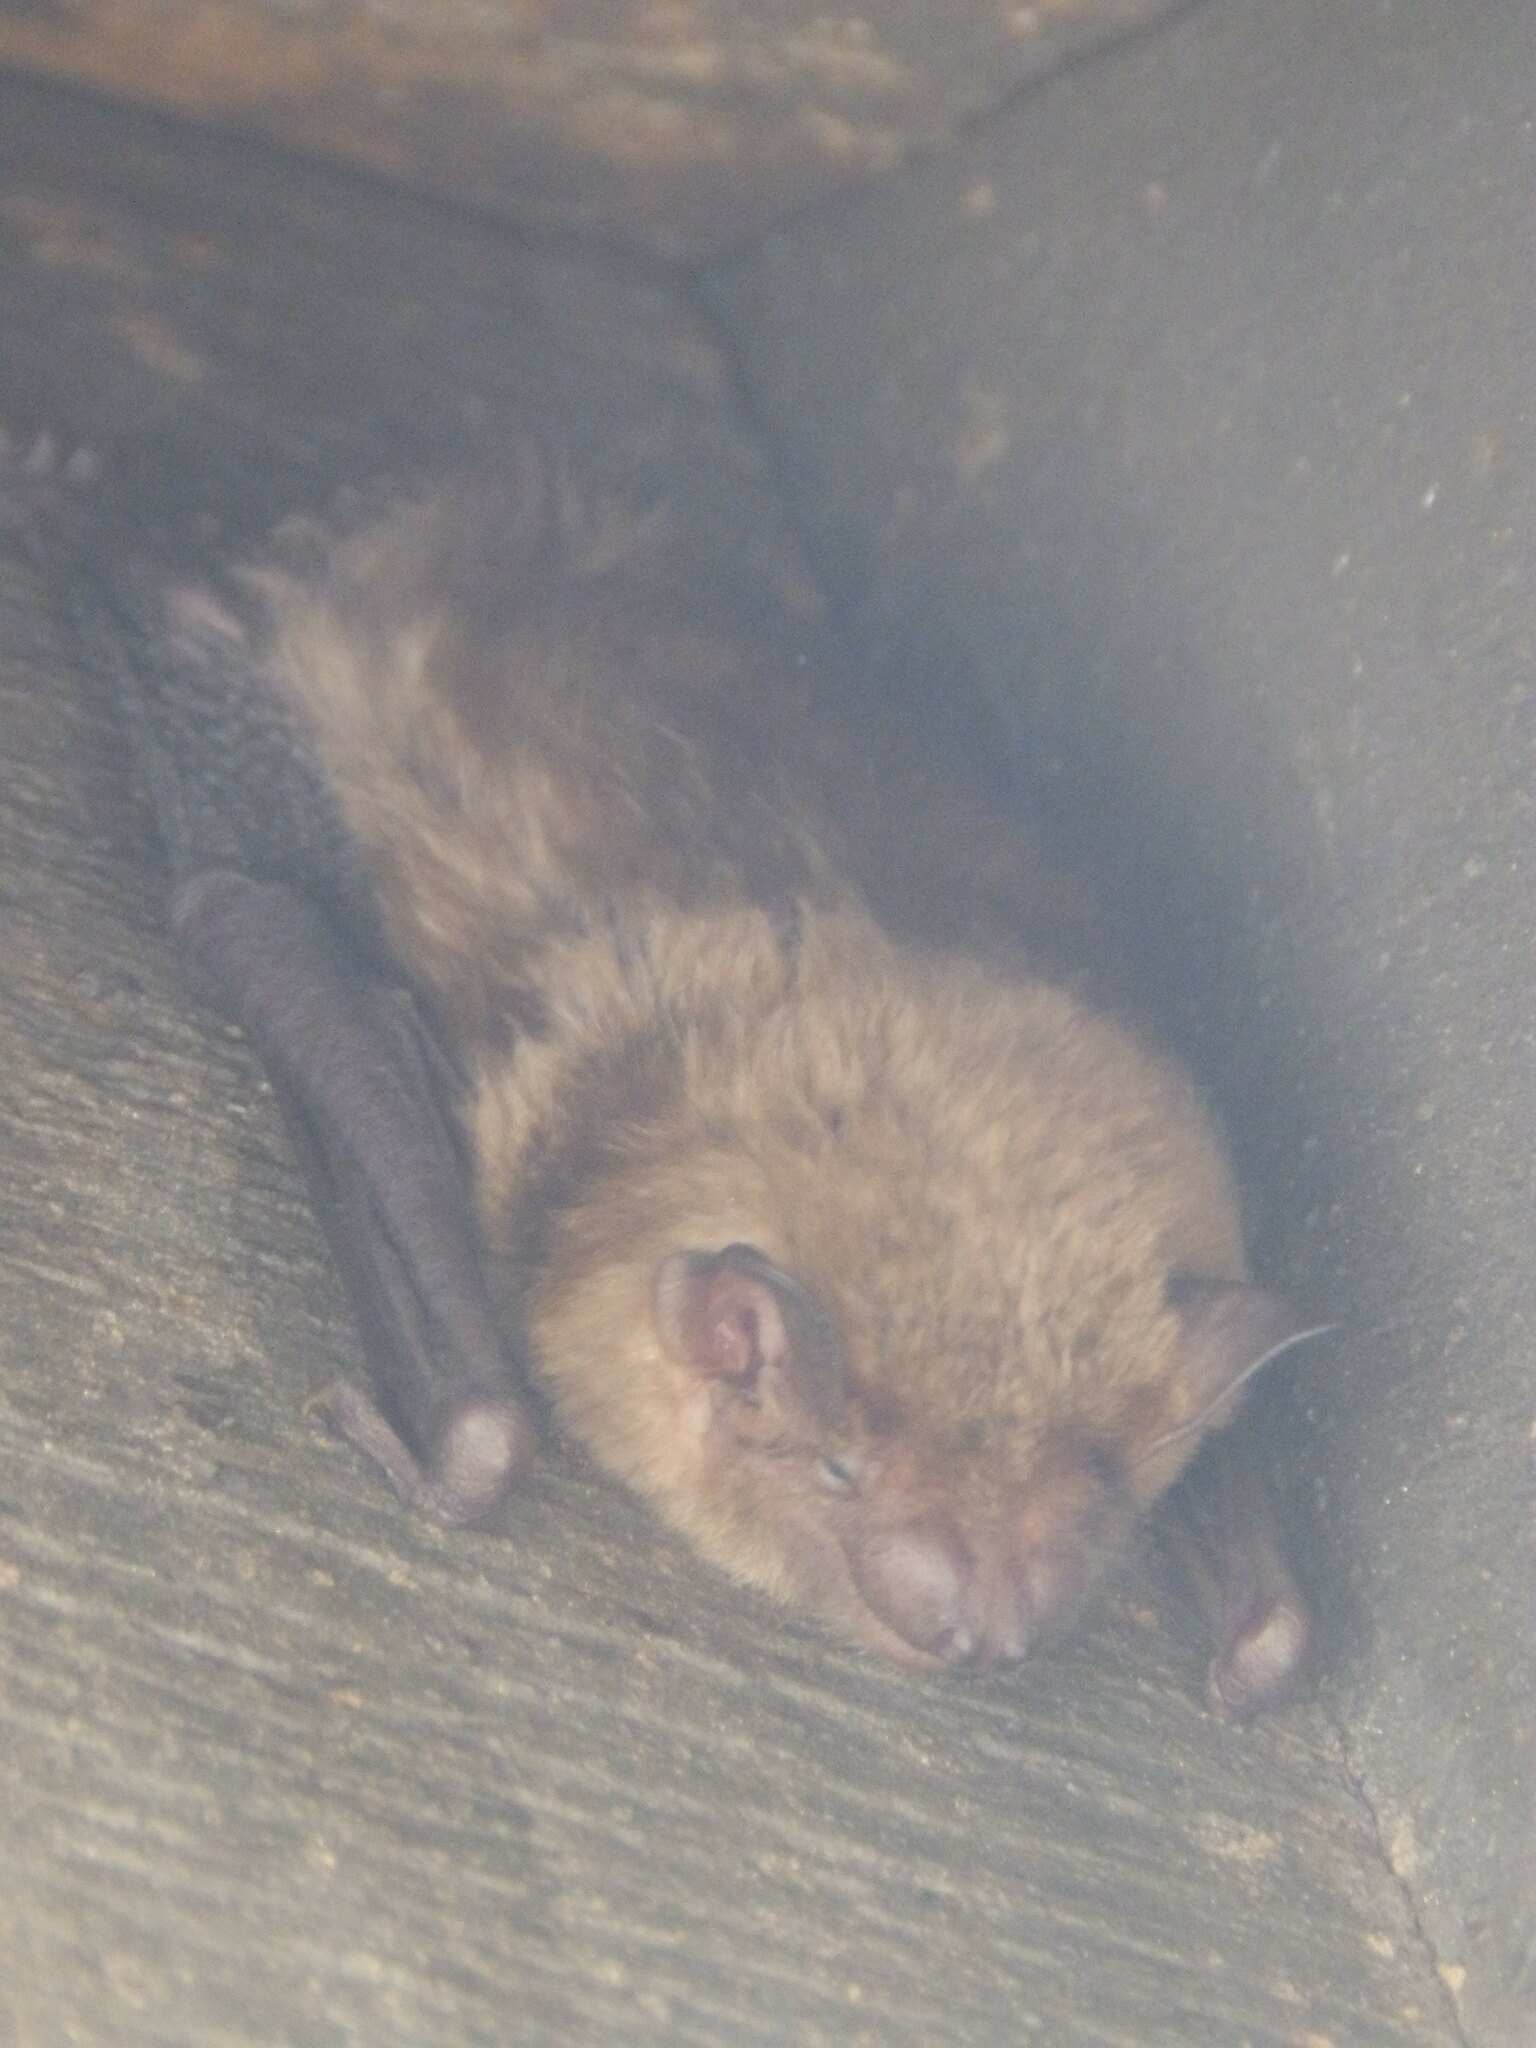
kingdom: Animalia
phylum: Chordata
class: Mammalia
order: Chiroptera
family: Vespertilionidae
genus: Eptesicus
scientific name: Eptesicus fuscus
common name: Big brown bat
